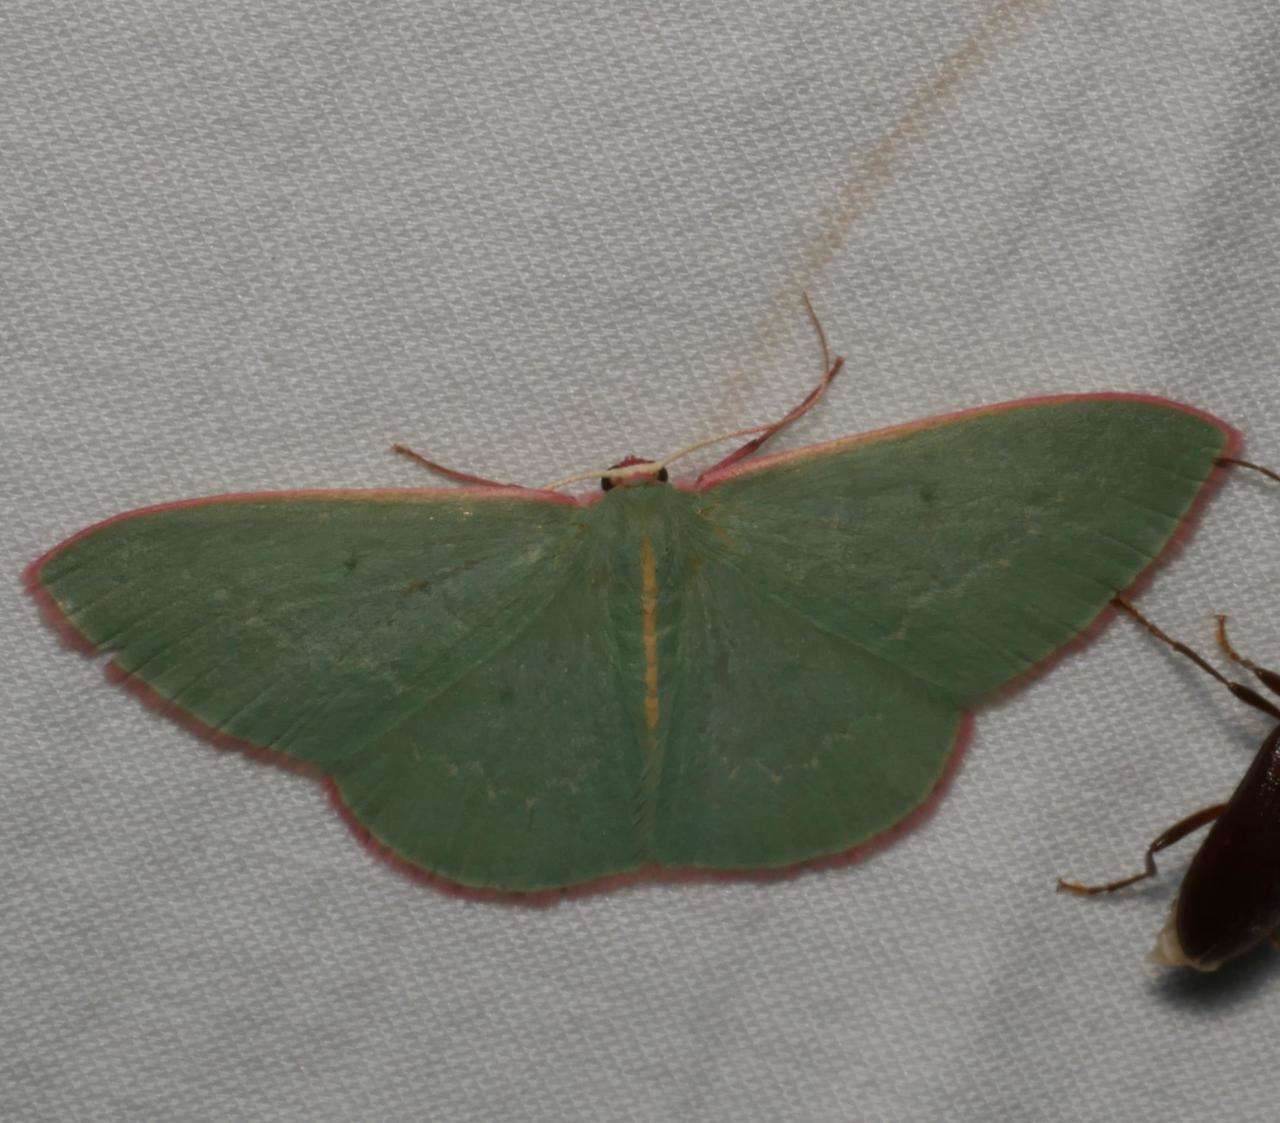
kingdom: Animalia
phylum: Arthropoda
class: Insecta
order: Lepidoptera
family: Geometridae
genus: Chlorocoma
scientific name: Chlorocoma vertumnaria
